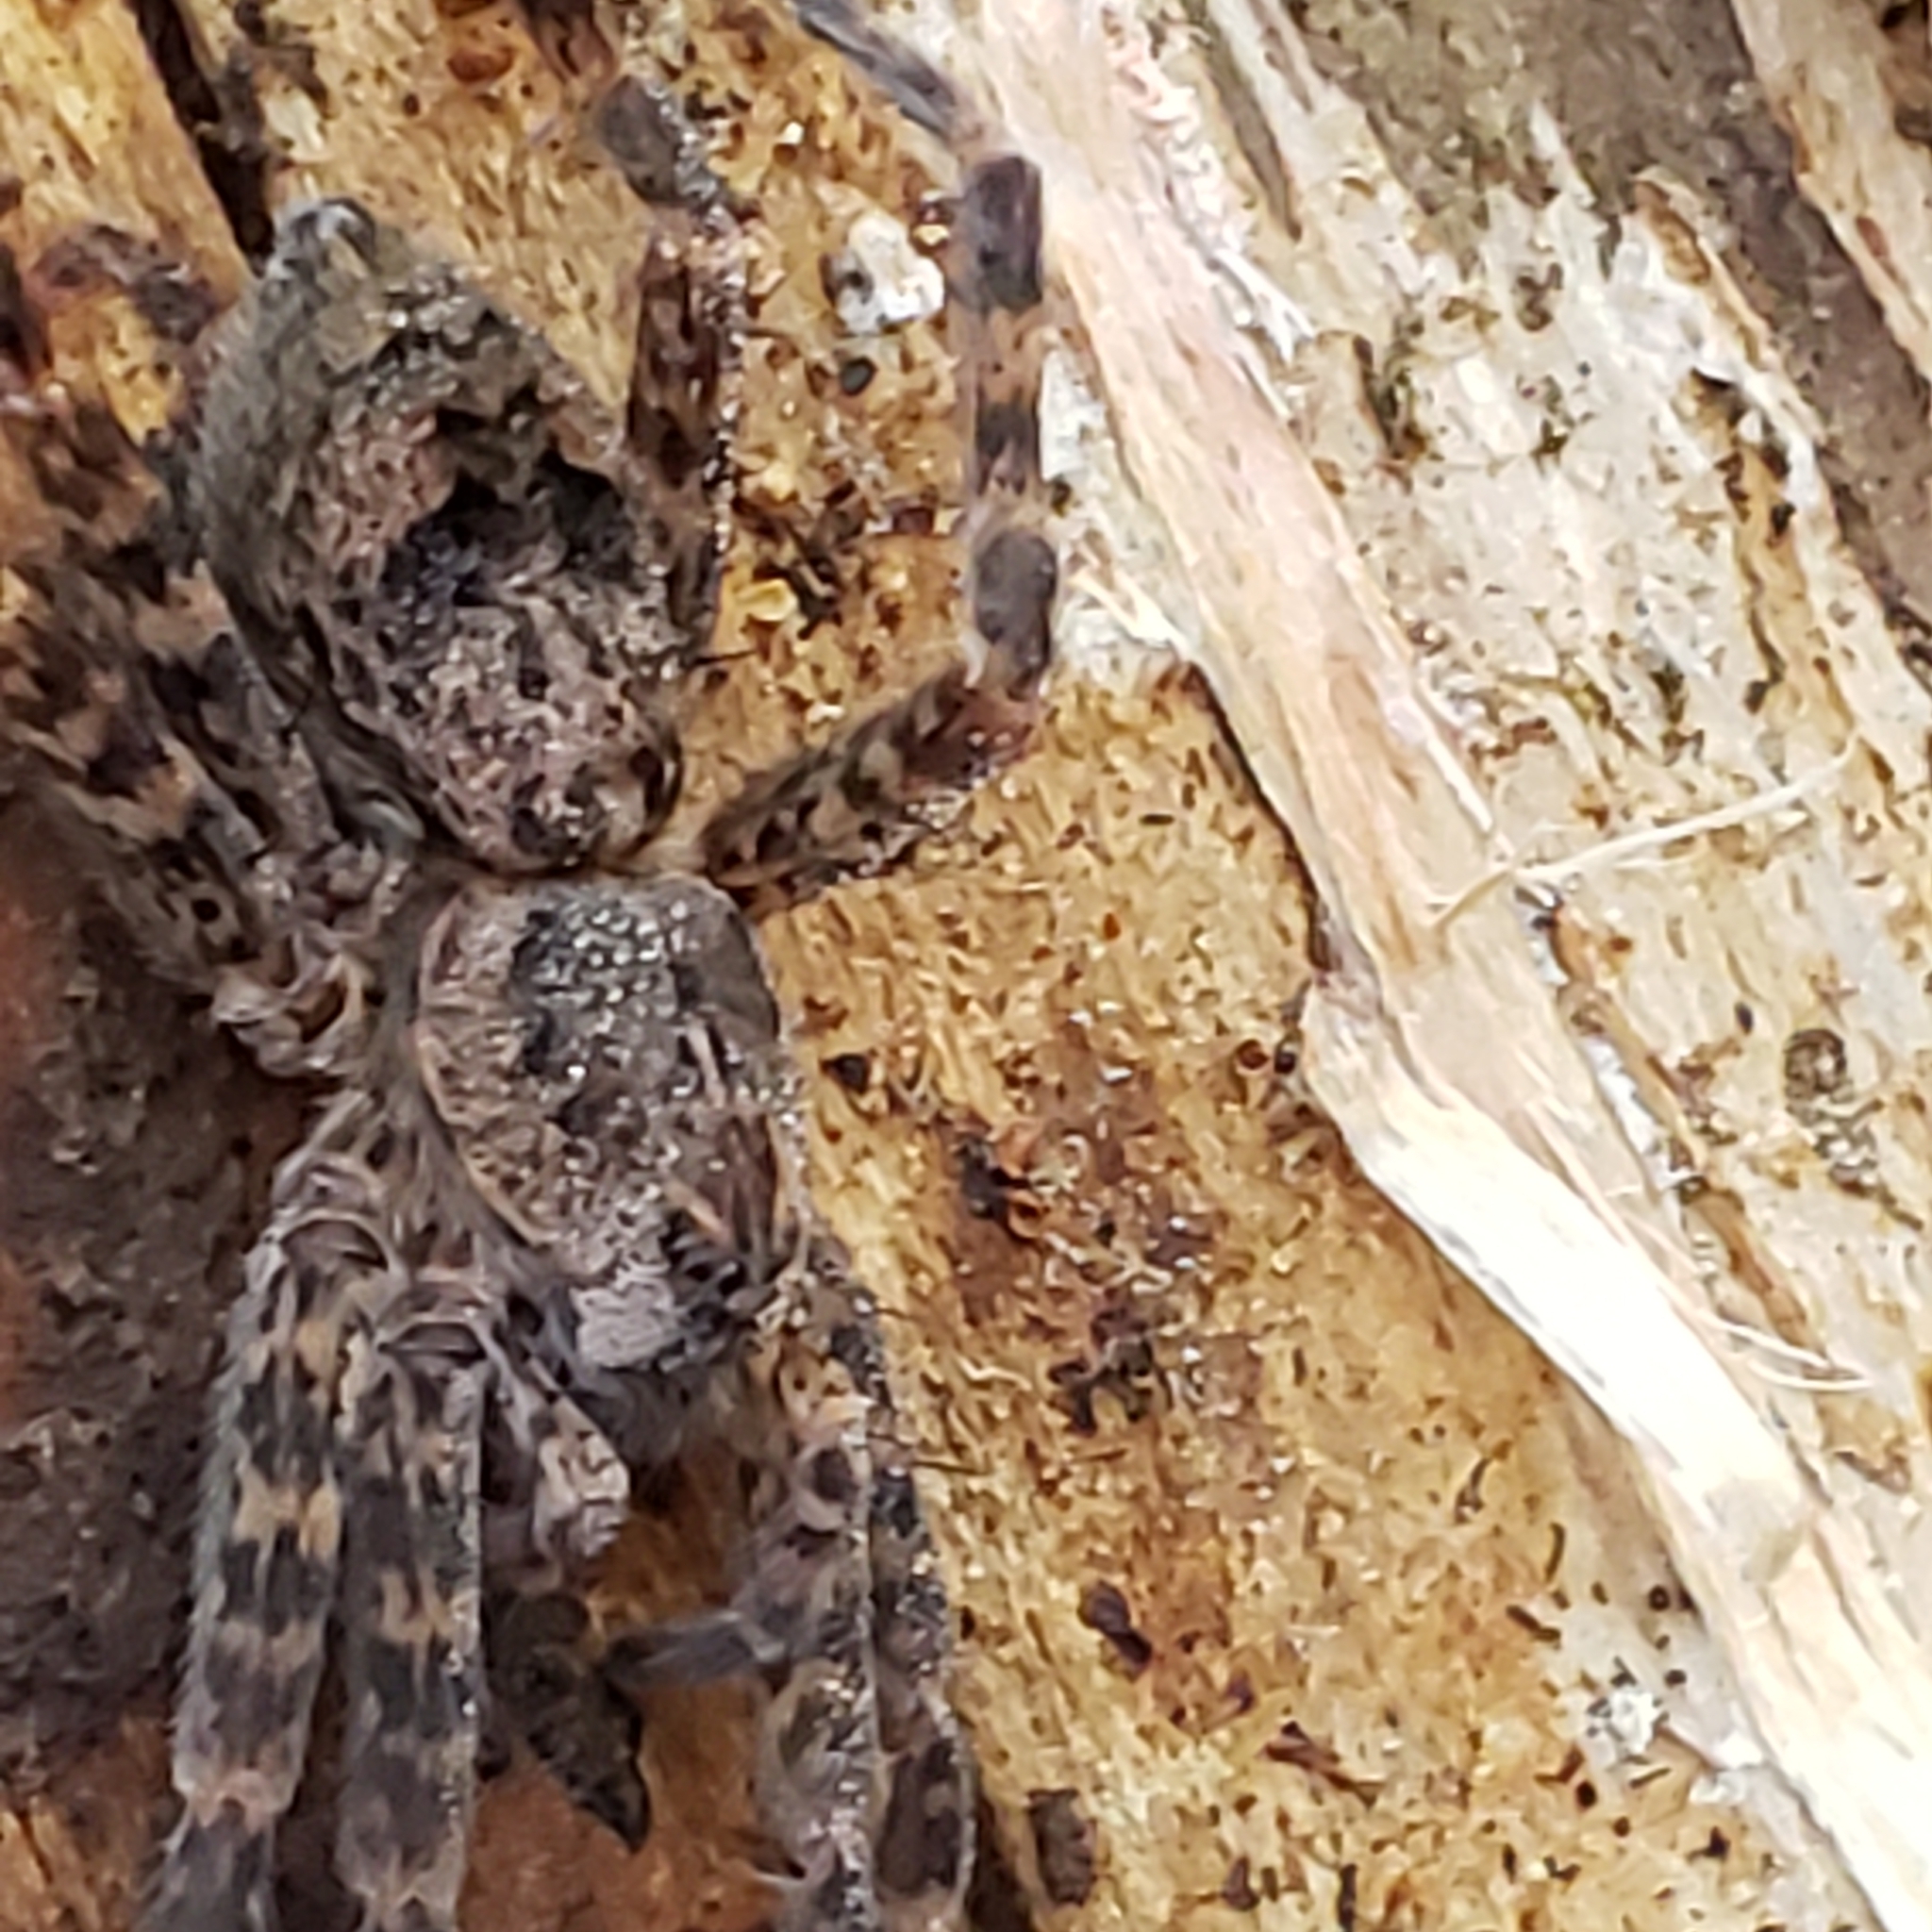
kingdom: Animalia
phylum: Arthropoda
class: Arachnida
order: Araneae
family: Pisauridae
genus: Dolomedes
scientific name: Dolomedes tenebrosus
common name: Dark fishing spider
